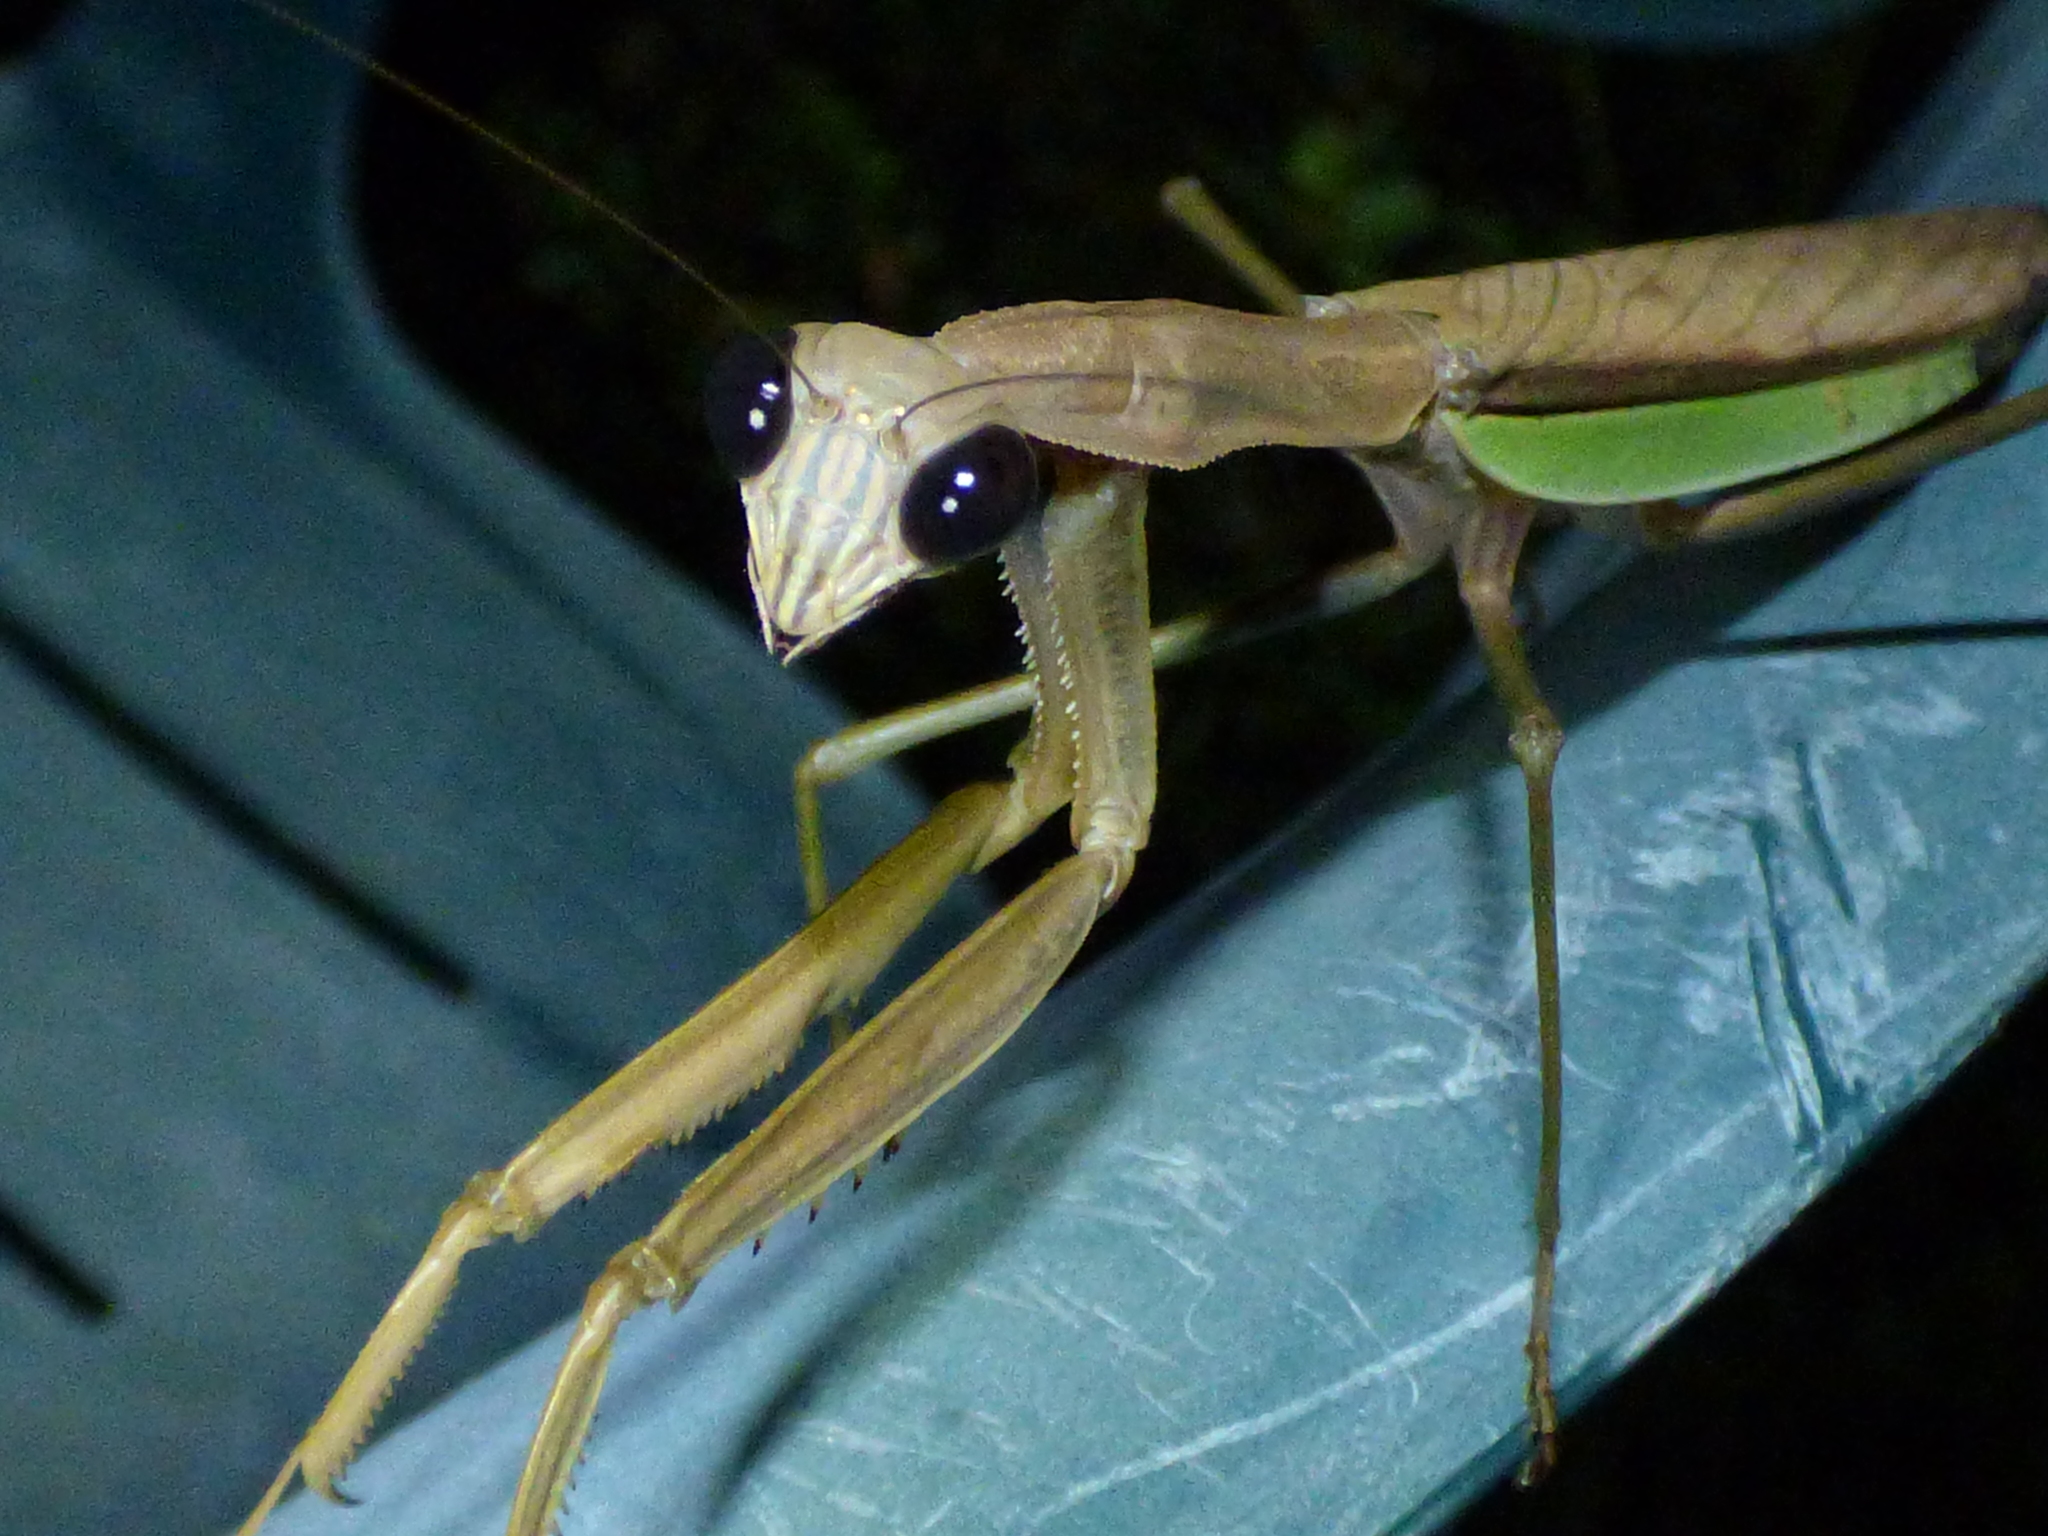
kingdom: Animalia
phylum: Arthropoda
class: Insecta
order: Mantodea
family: Mantidae
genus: Tenodera
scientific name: Tenodera sinensis
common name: Chinese mantis
